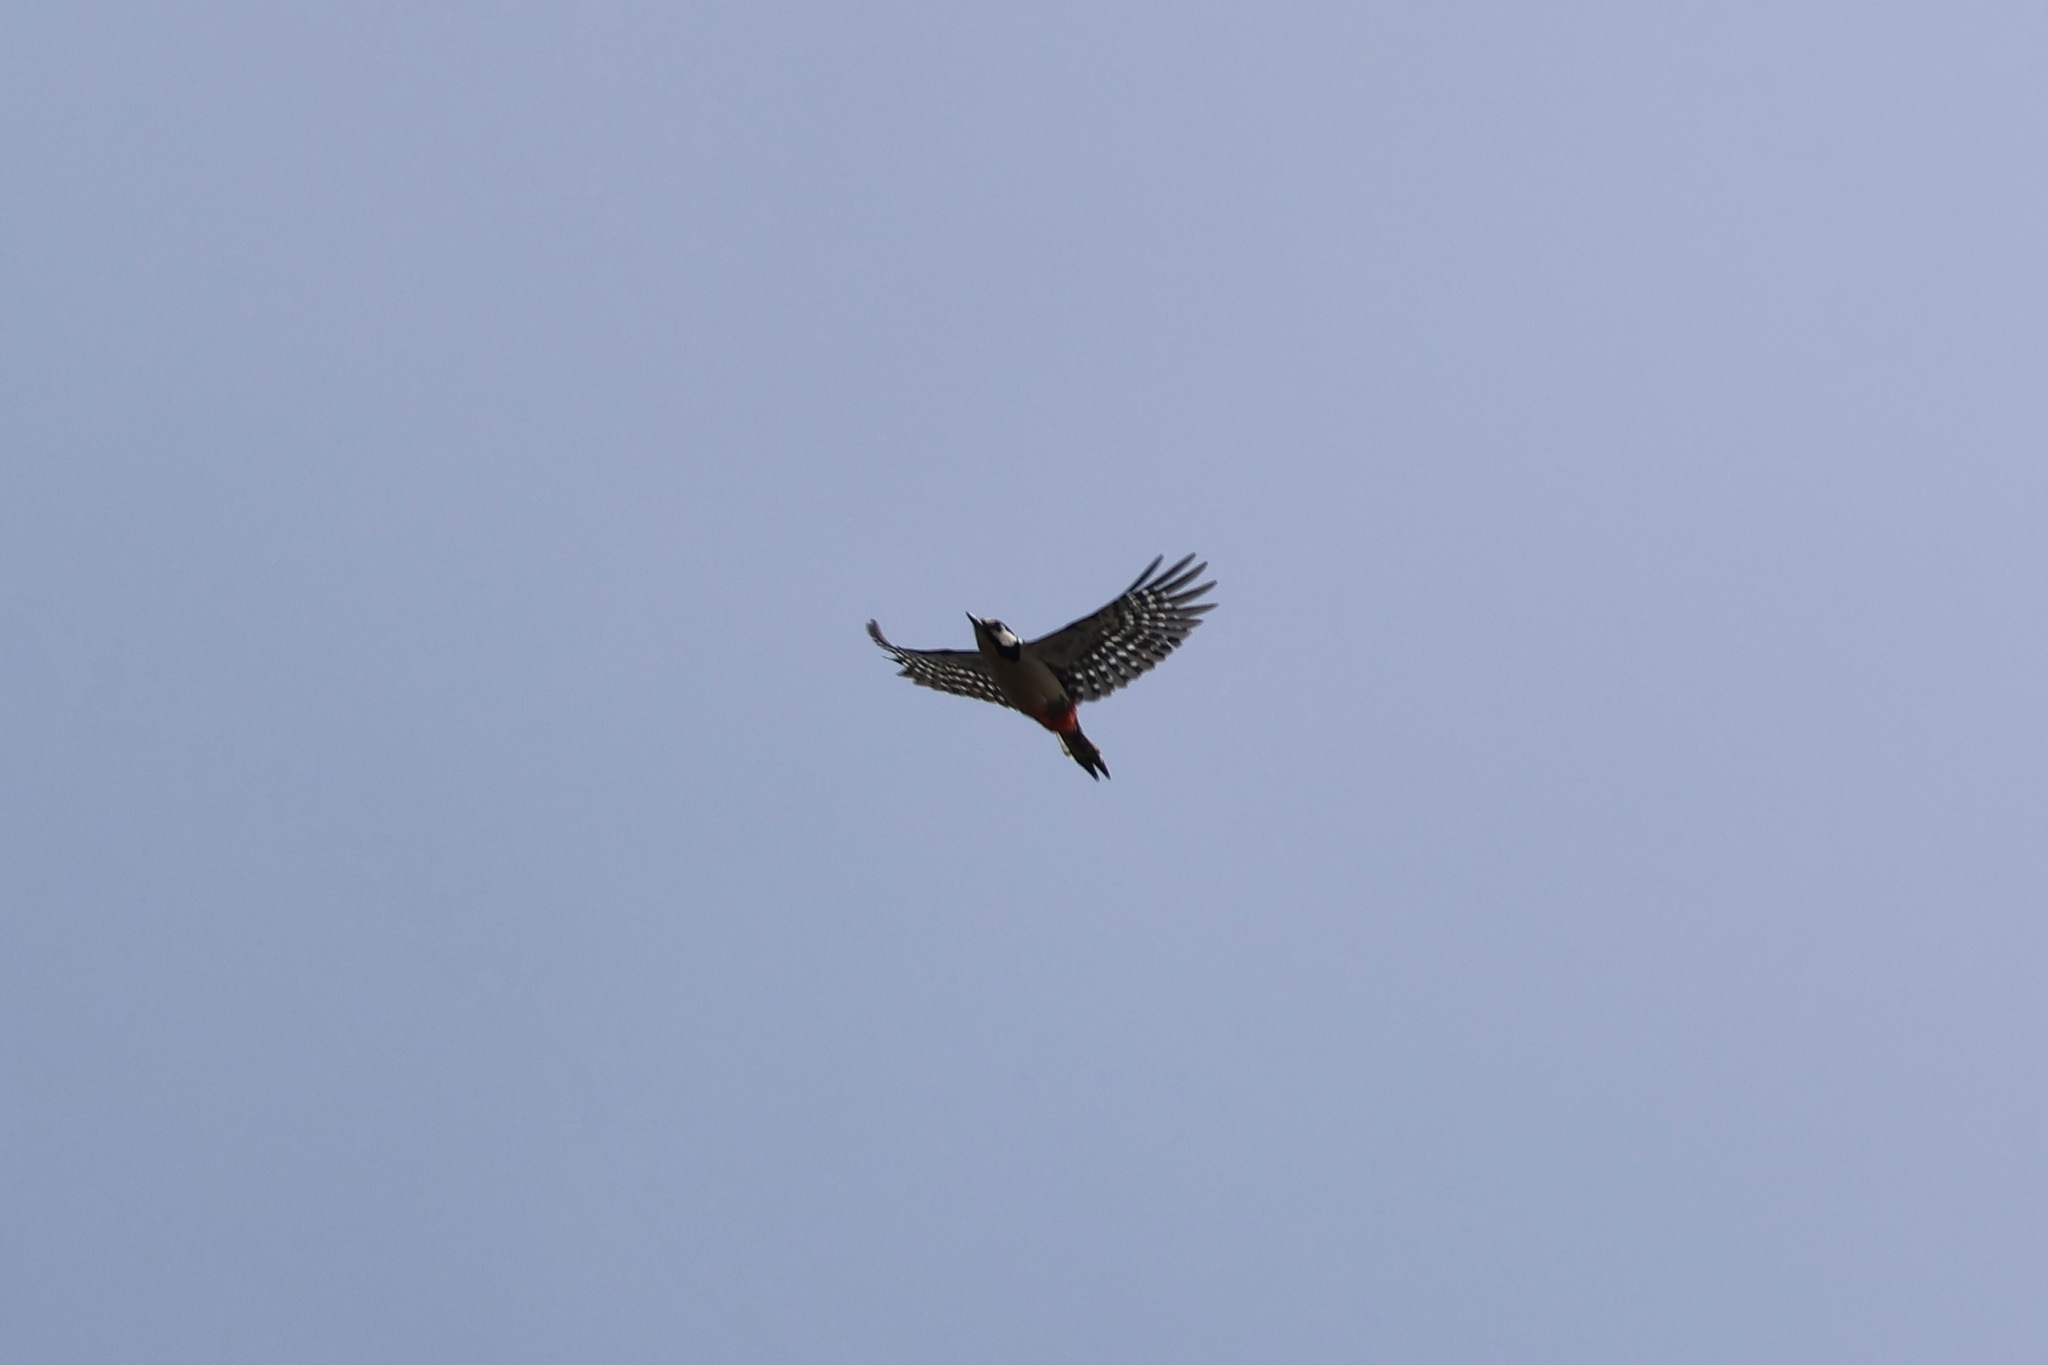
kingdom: Animalia
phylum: Chordata
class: Aves
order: Piciformes
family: Picidae
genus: Dendrocopos
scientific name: Dendrocopos major
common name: Great spotted woodpecker
